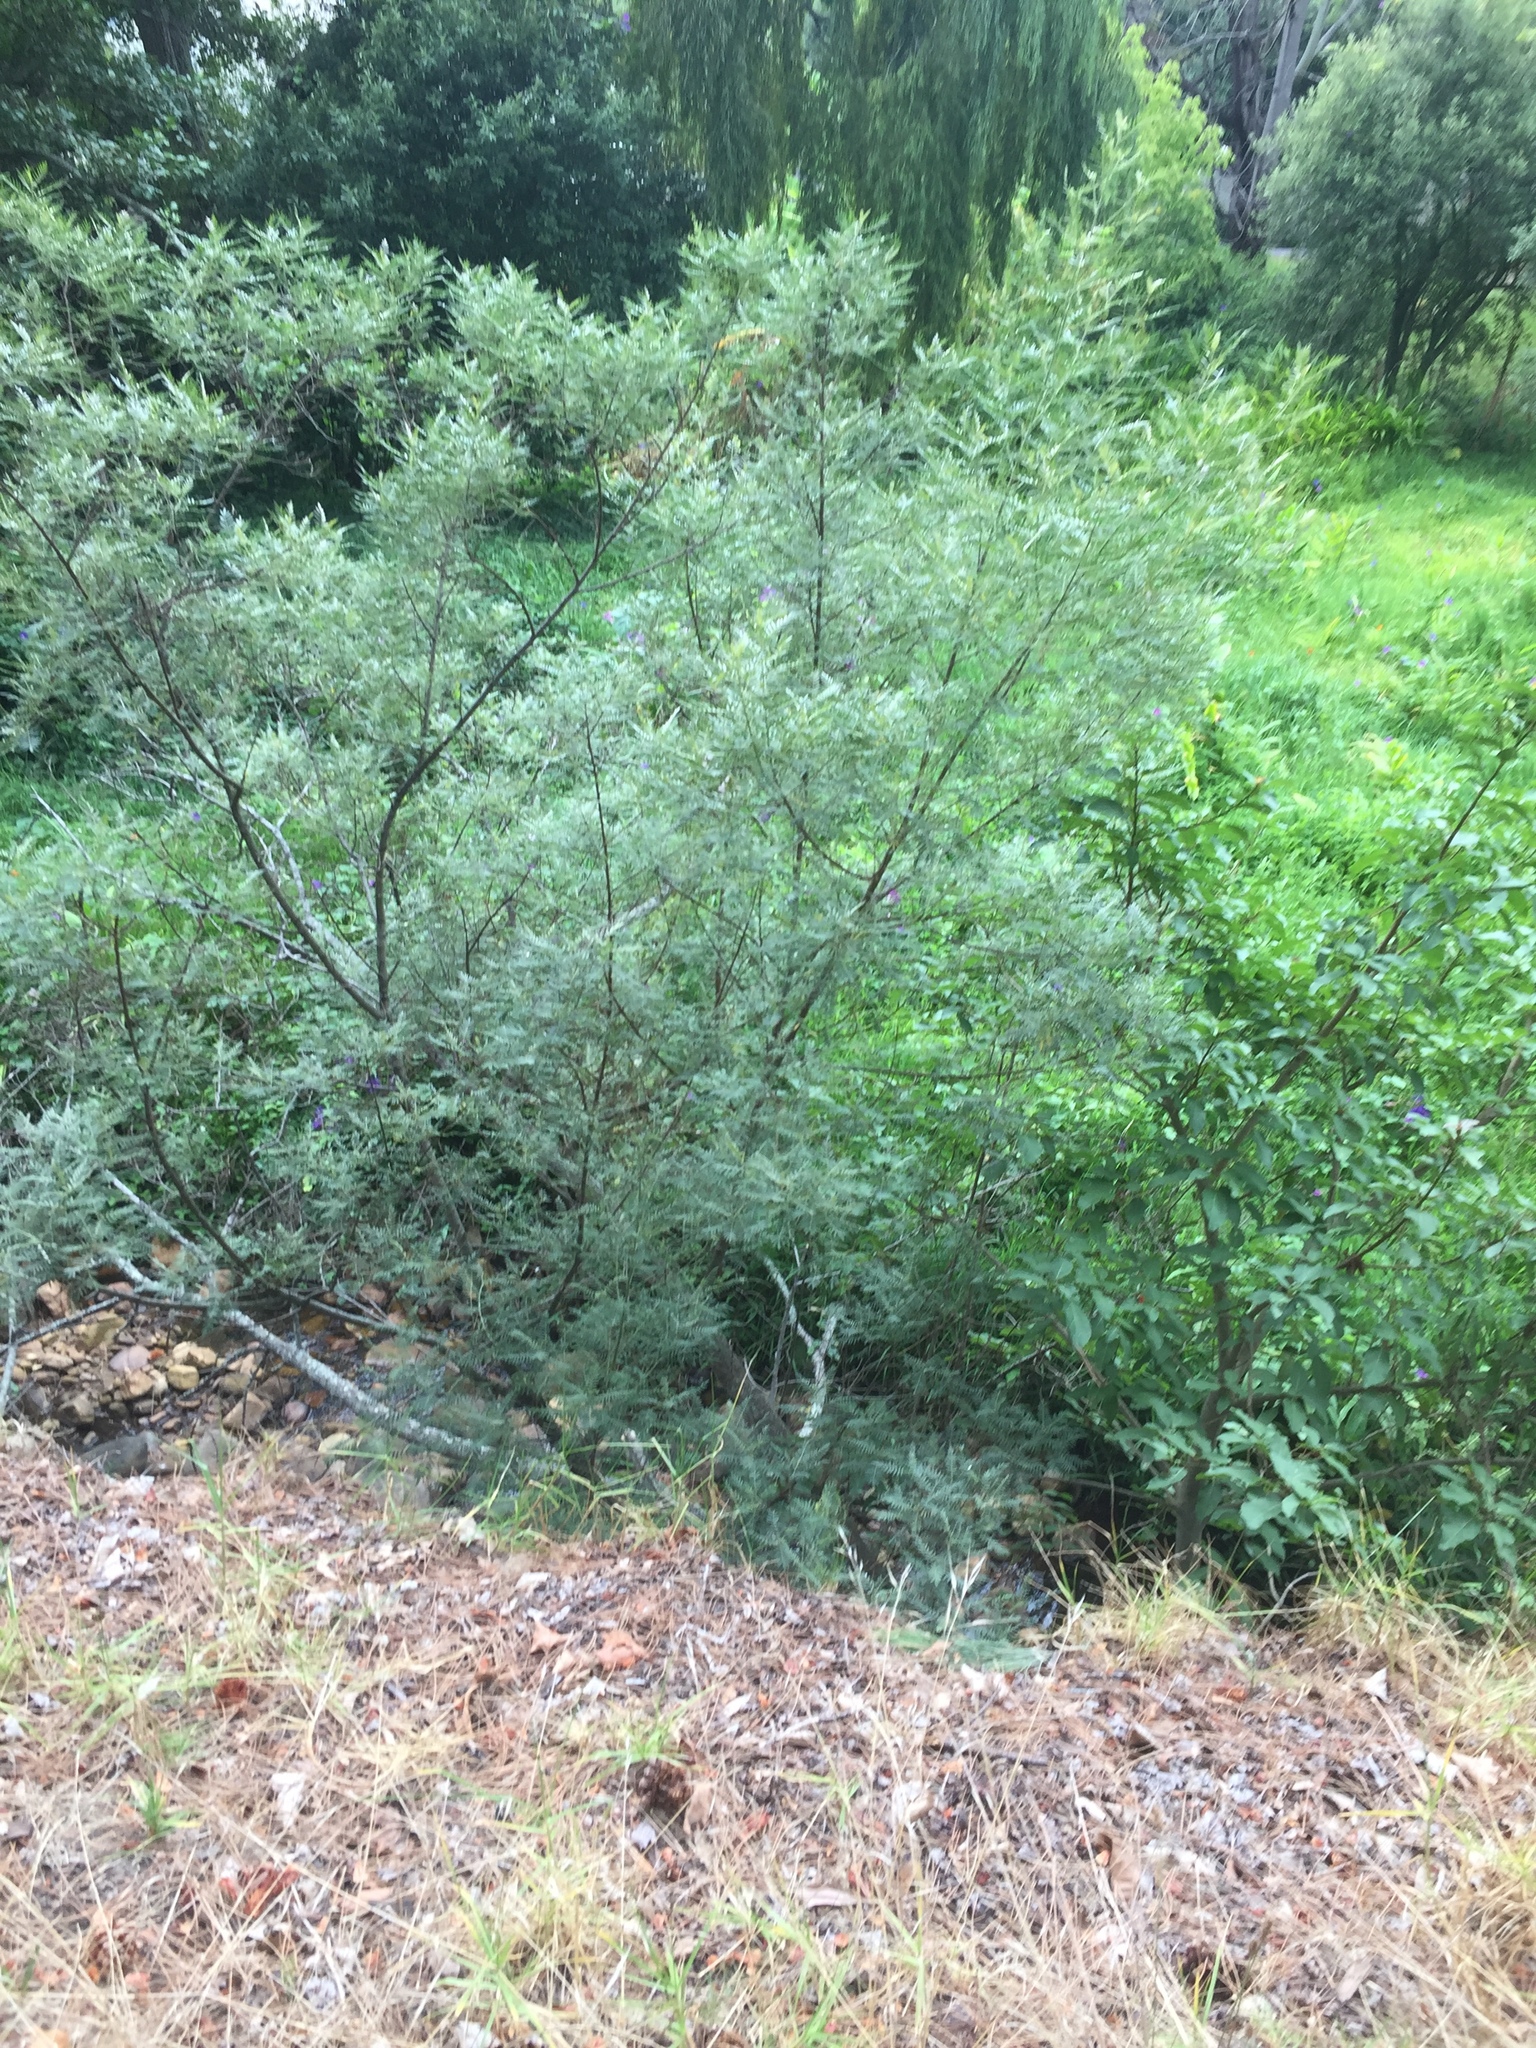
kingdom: Plantae
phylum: Tracheophyta
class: Magnoliopsida
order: Fabales
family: Fabaceae
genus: Virgilia
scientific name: Virgilia oroboides
